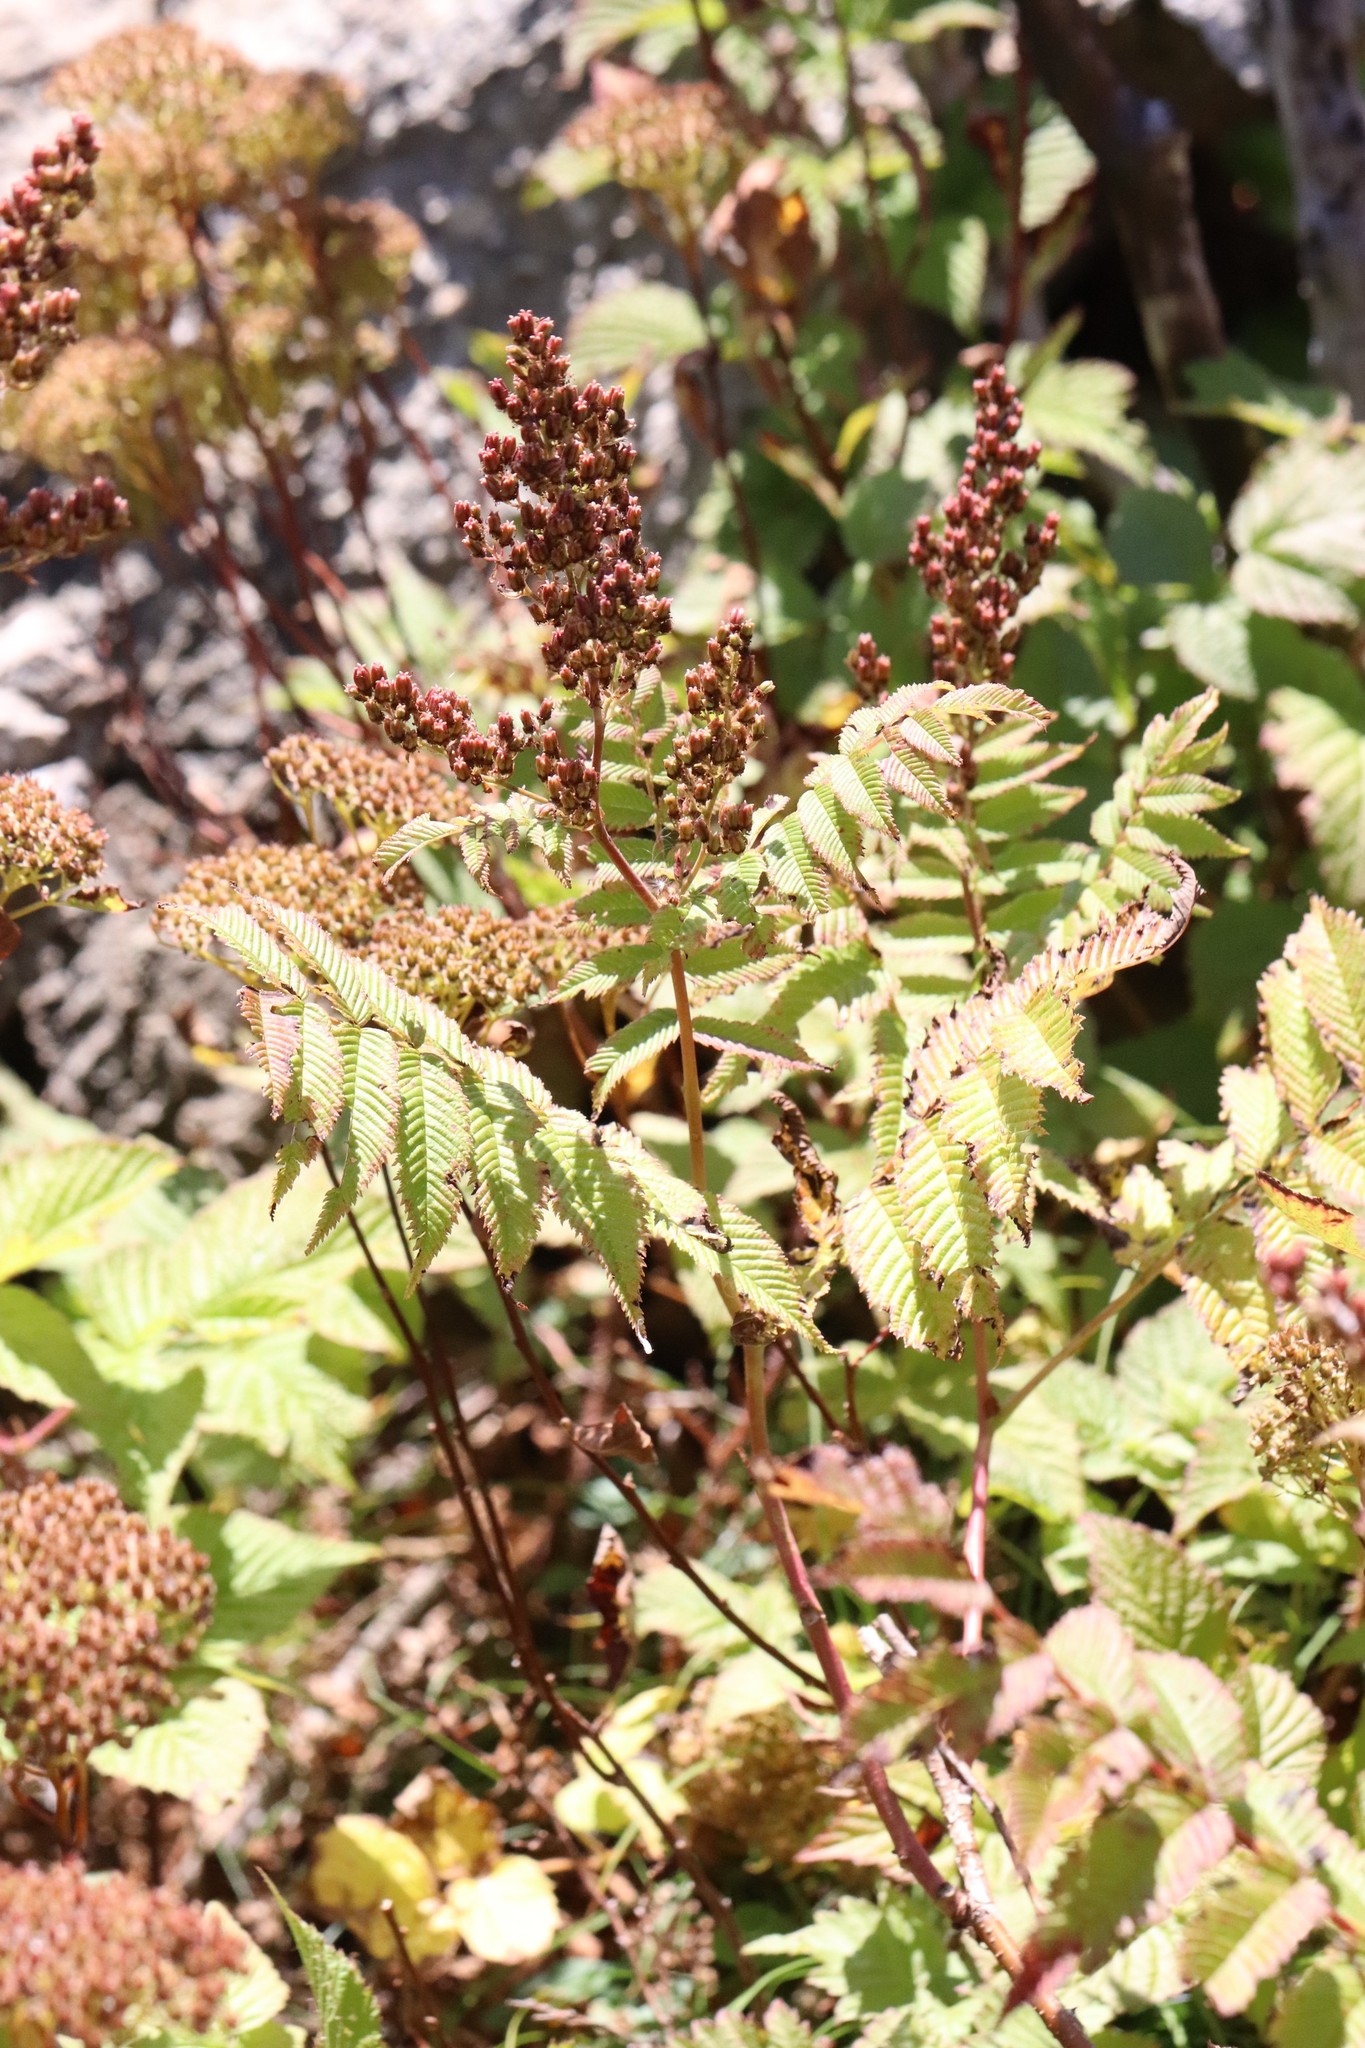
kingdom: Plantae
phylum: Tracheophyta
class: Magnoliopsida
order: Rosales
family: Rosaceae
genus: Sorbaria
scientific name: Sorbaria sorbifolia
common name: False spiraea
